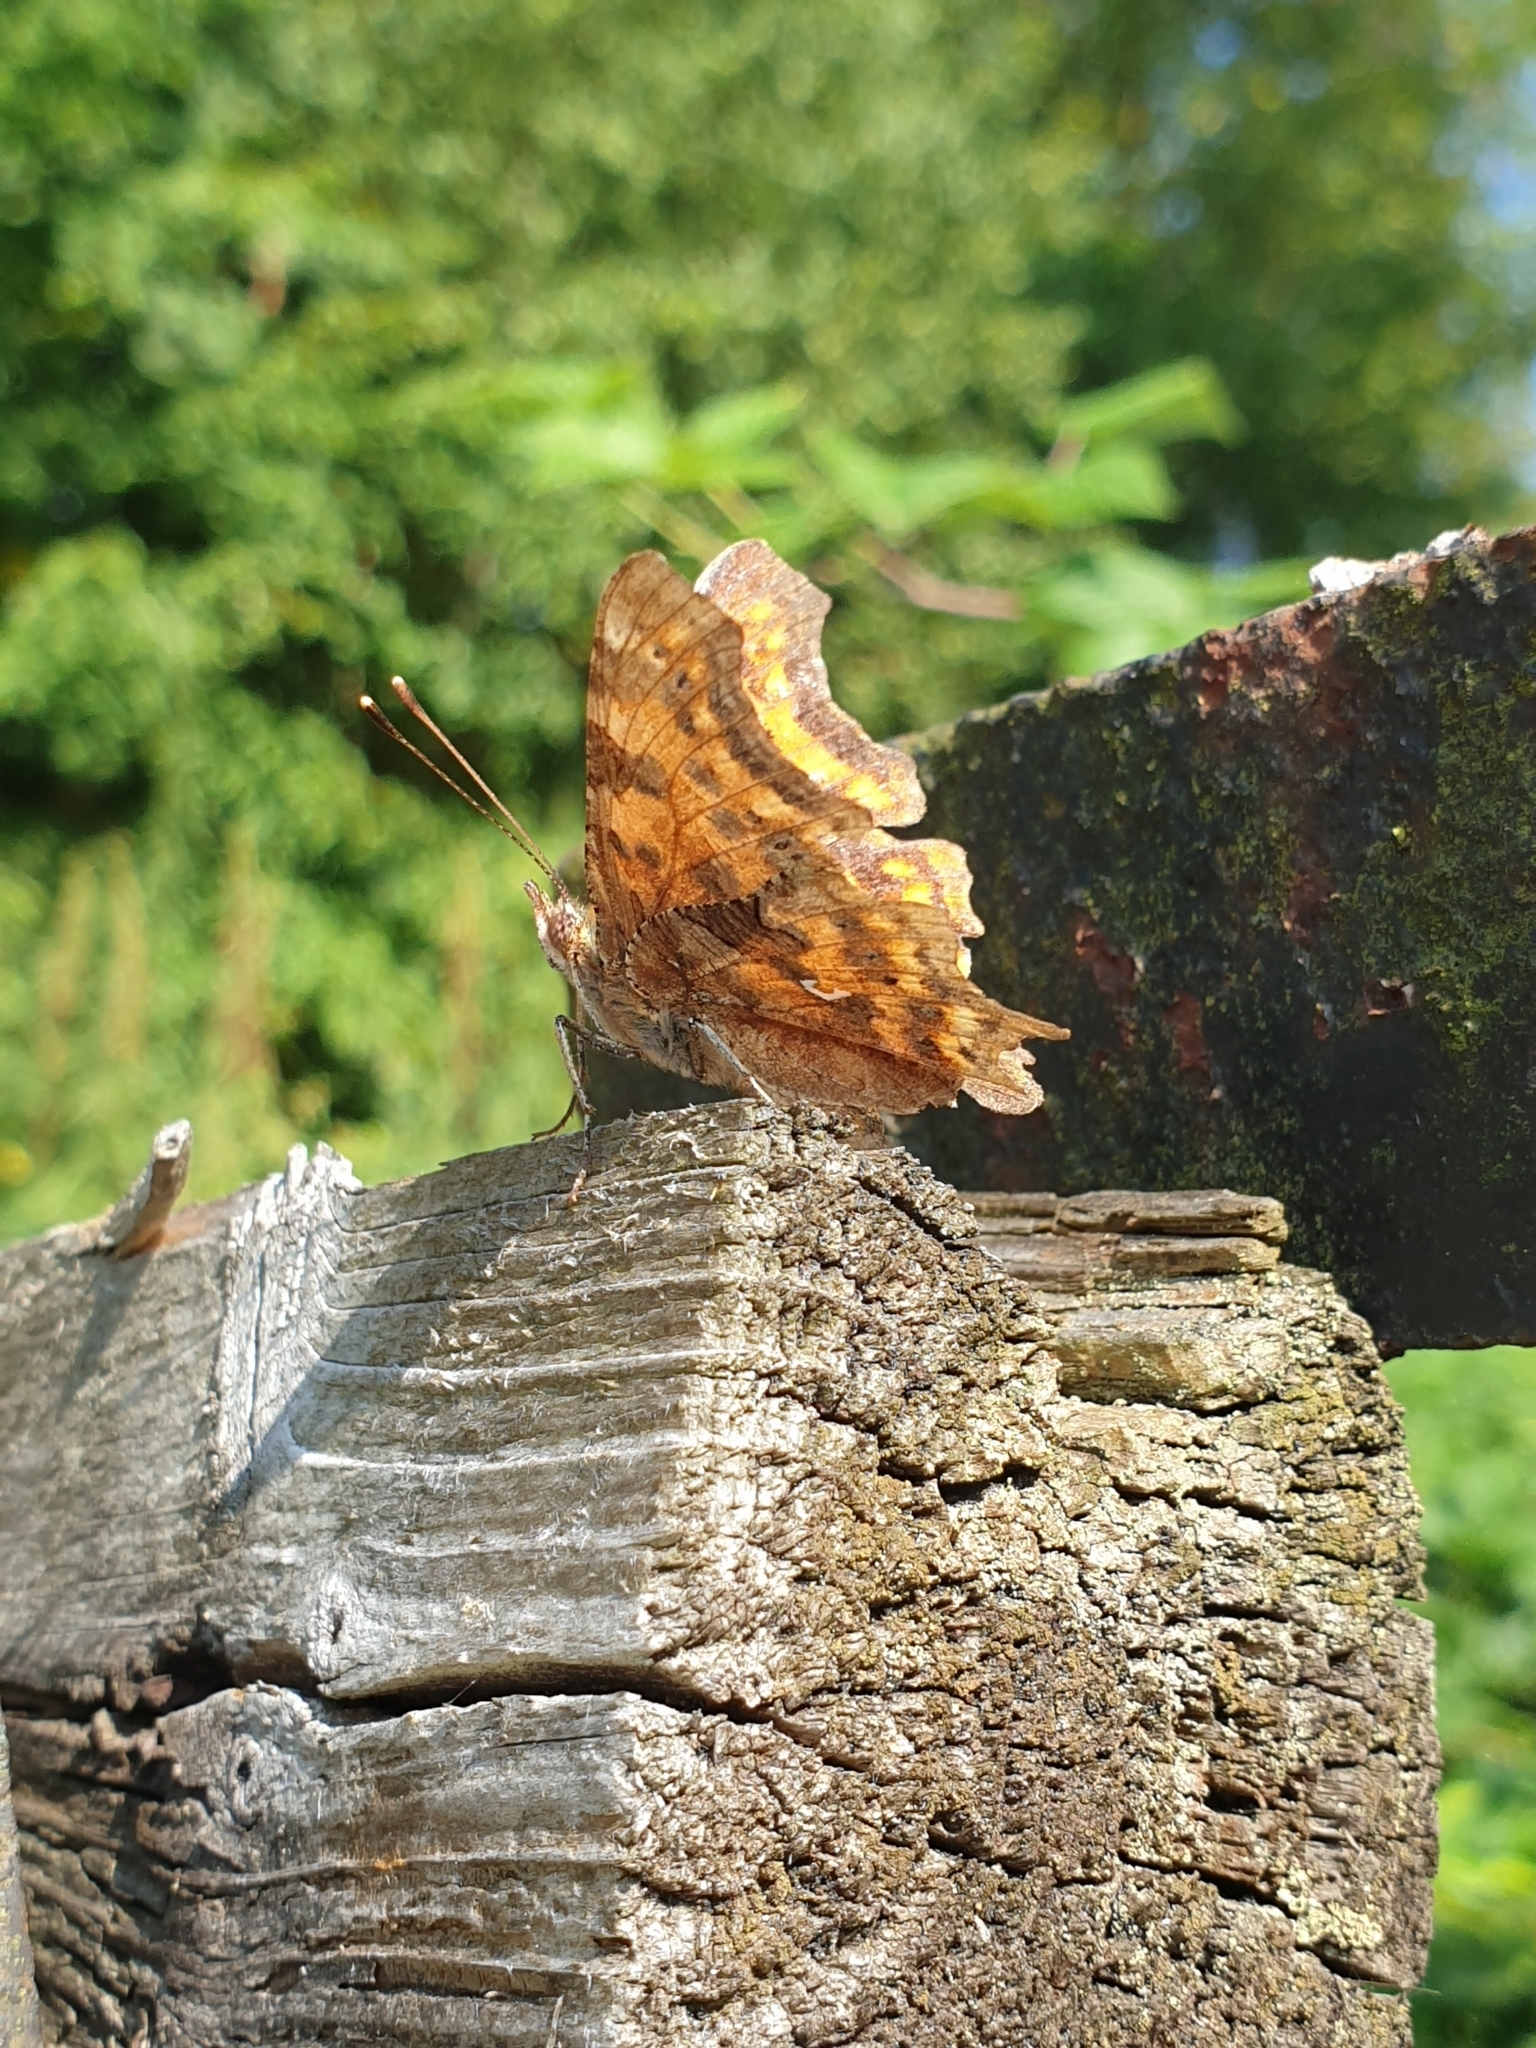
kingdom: Animalia
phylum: Arthropoda
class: Insecta
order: Lepidoptera
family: Nymphalidae
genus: Polygonia
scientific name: Polygonia c-album
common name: Comma
